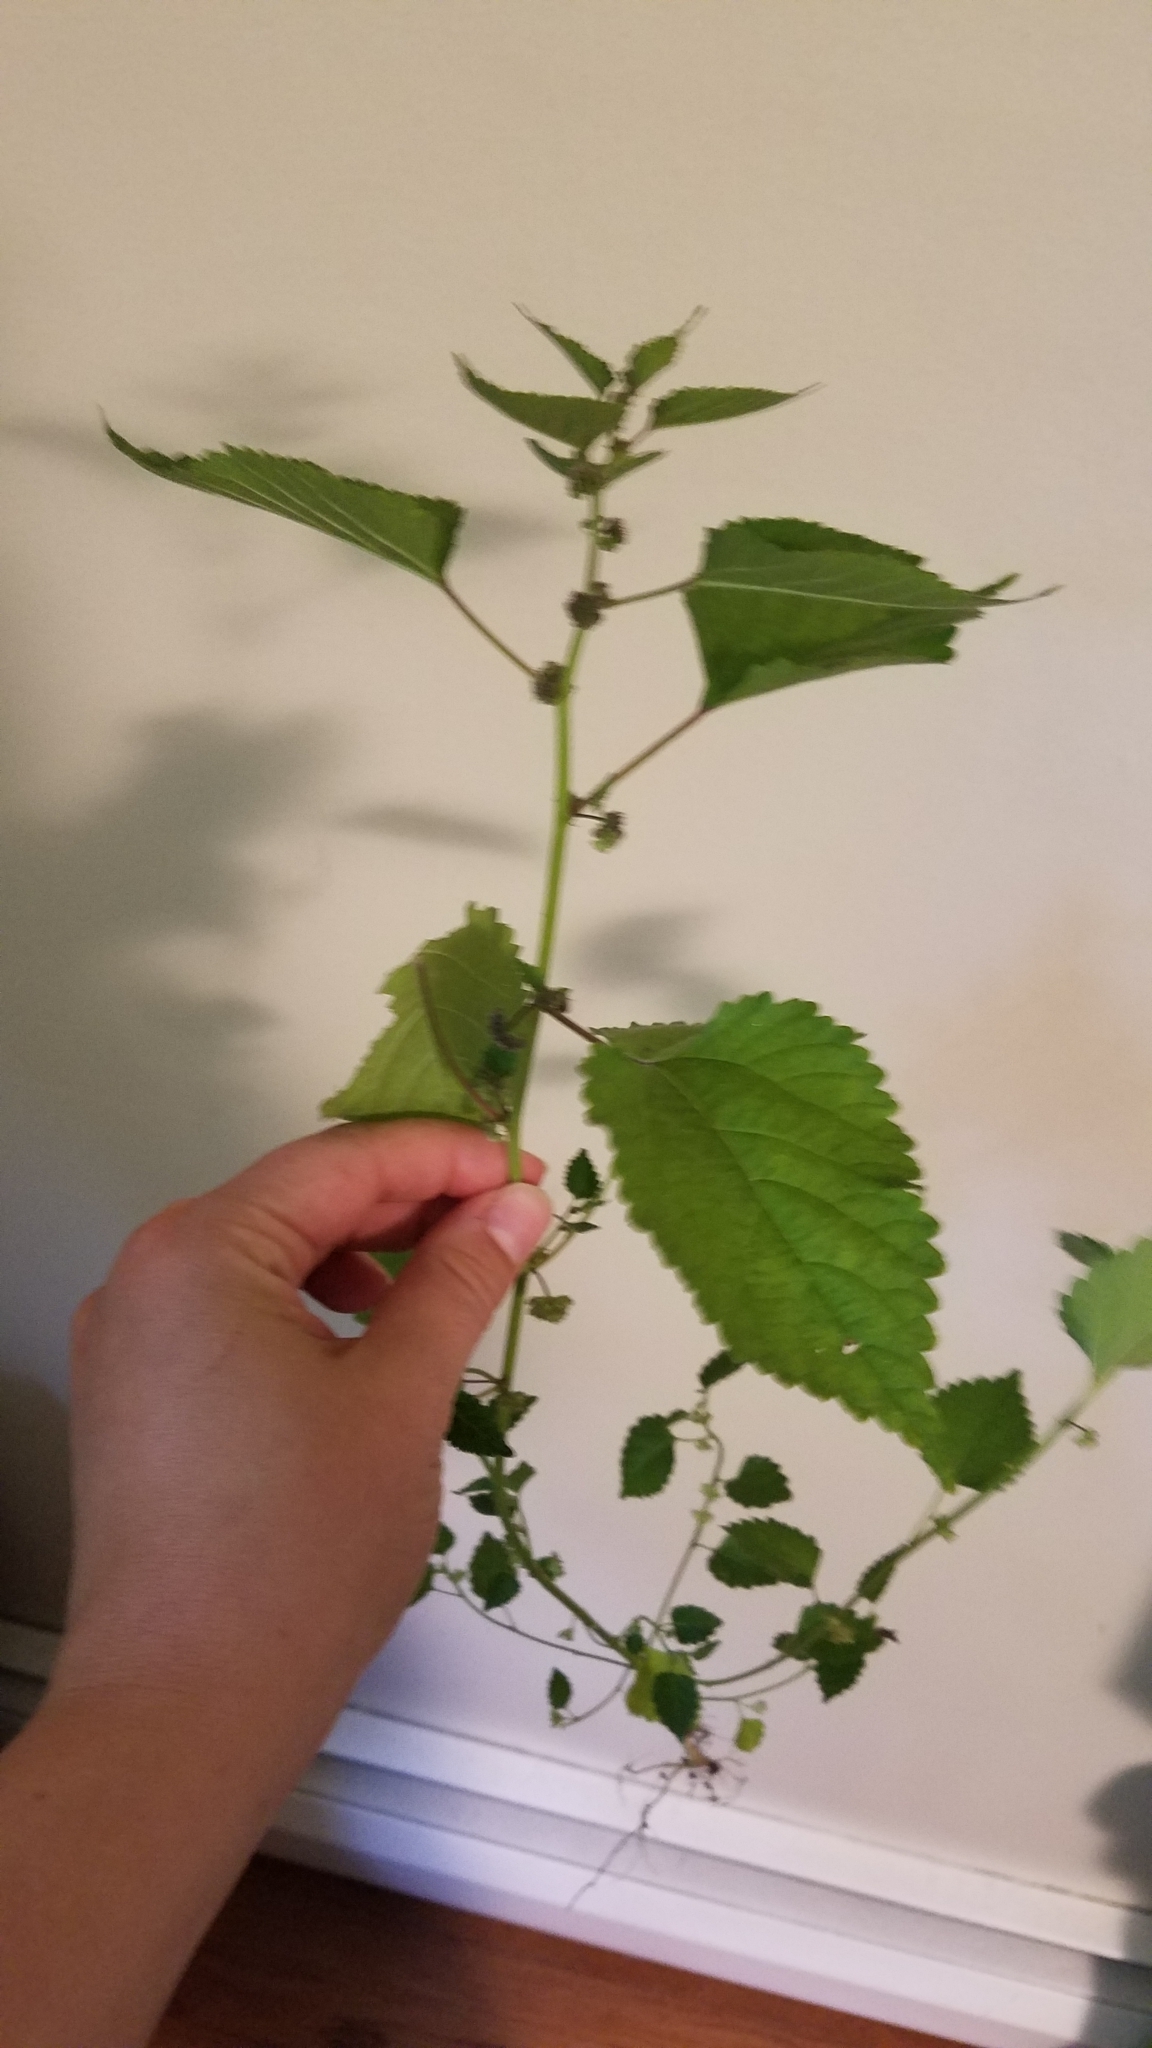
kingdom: Plantae
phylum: Tracheophyta
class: Magnoliopsida
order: Rosales
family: Moraceae
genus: Fatoua
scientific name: Fatoua villosa
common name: Hairy crabweed
